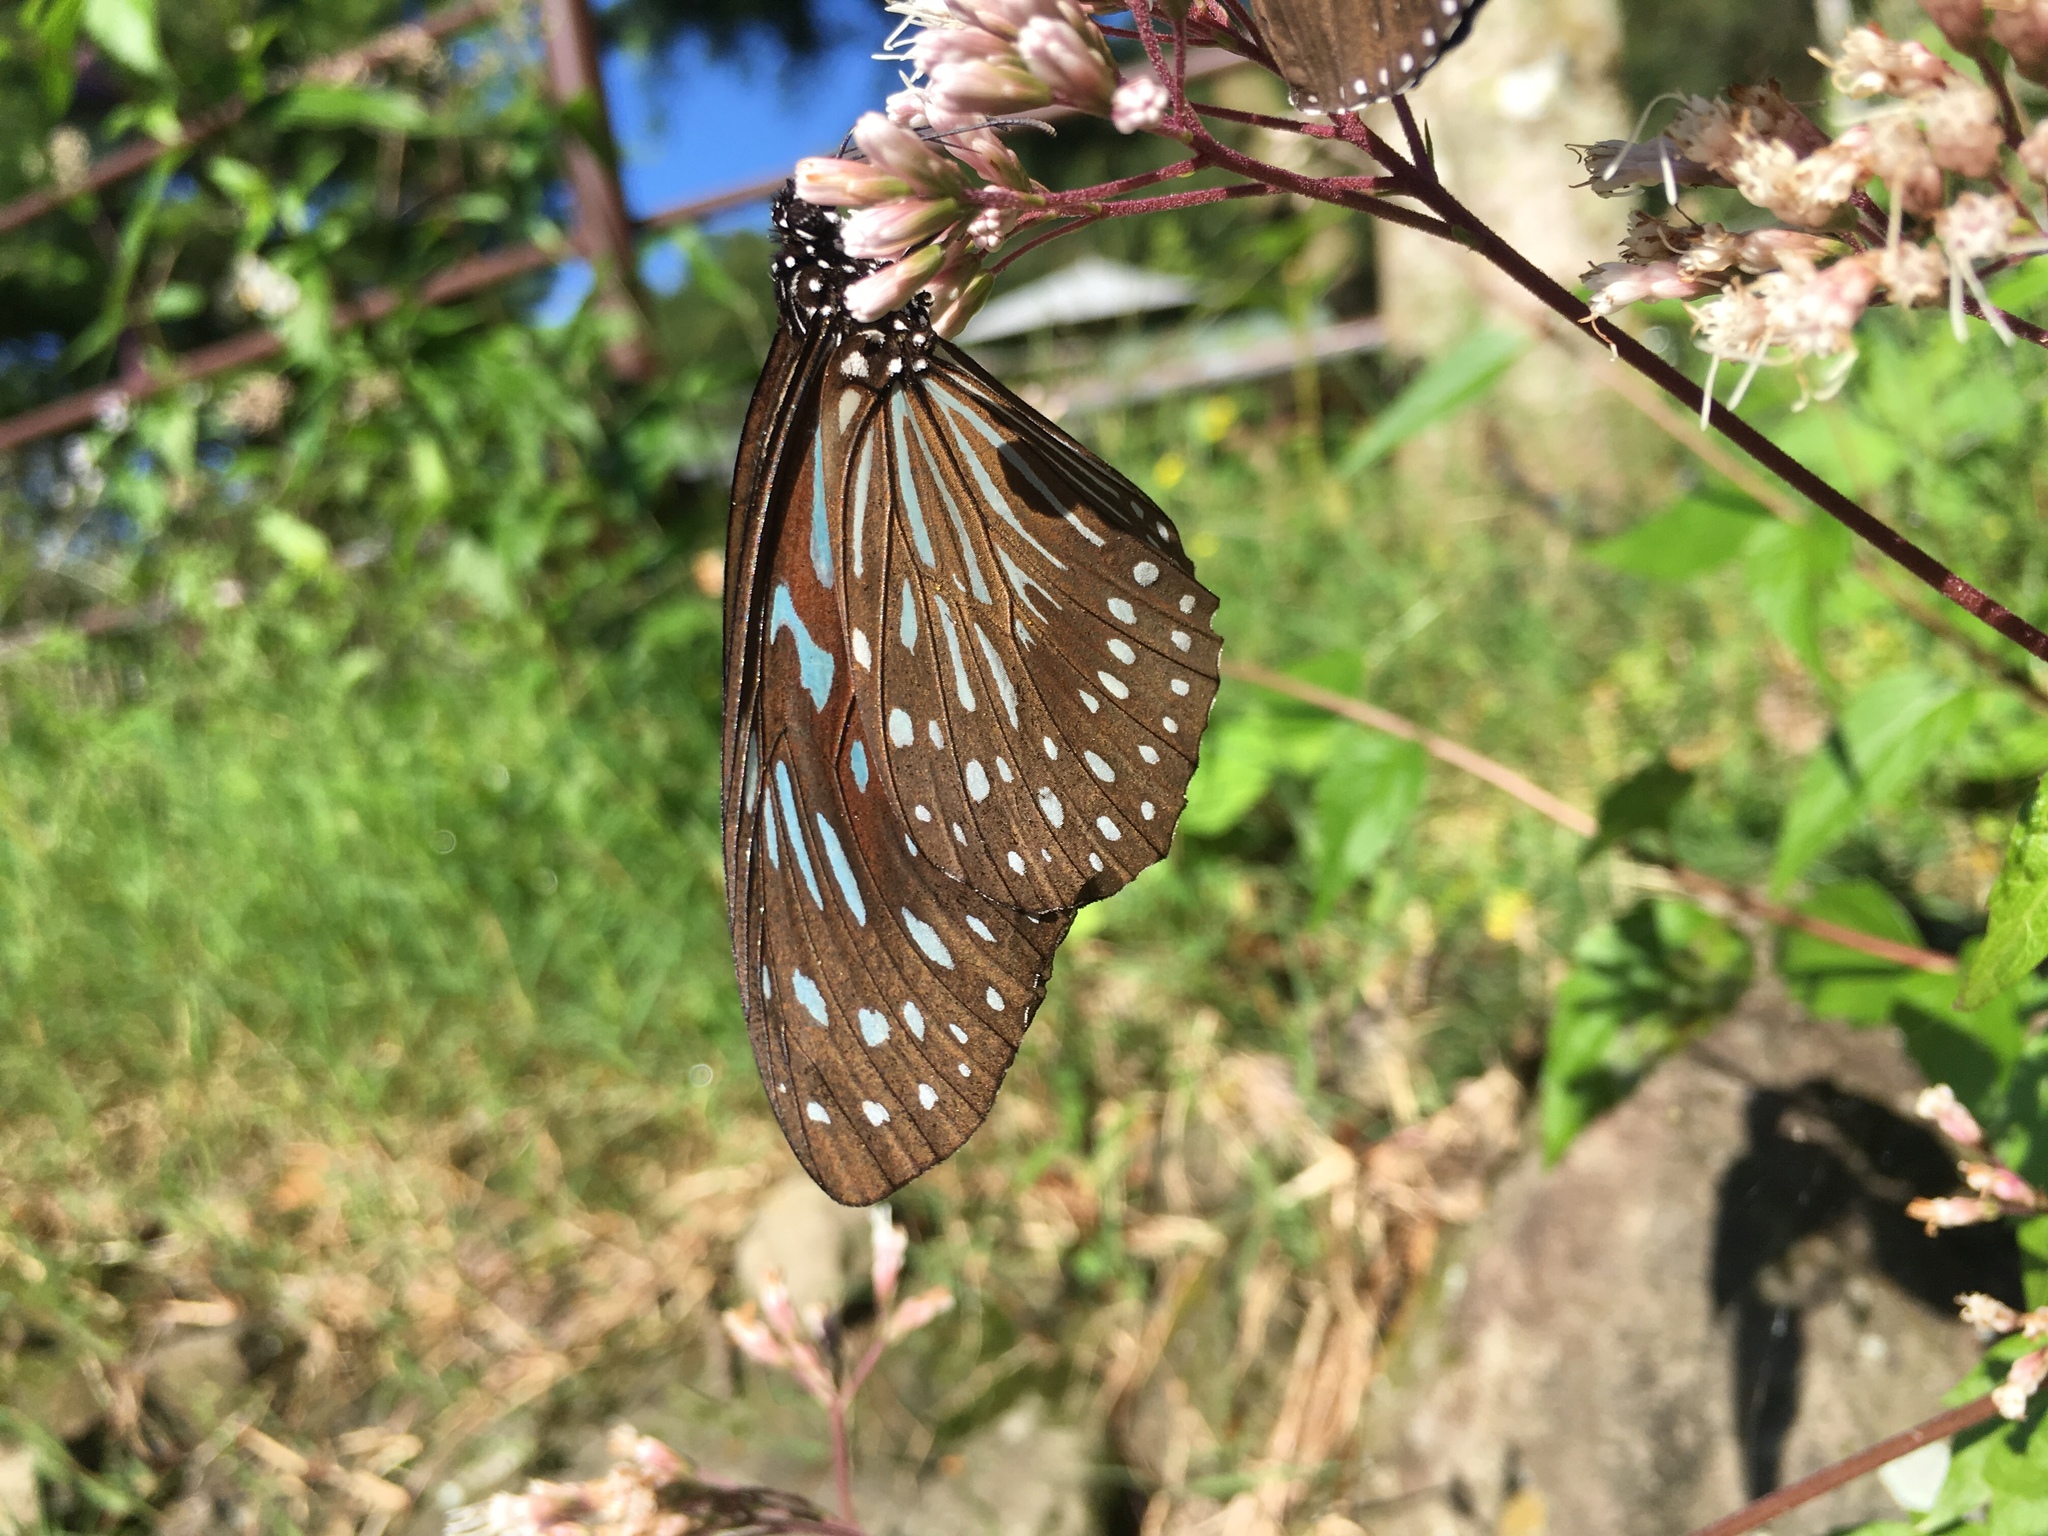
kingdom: Animalia
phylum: Arthropoda
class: Insecta
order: Lepidoptera
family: Nymphalidae
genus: Tirumala
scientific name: Tirumala septentrionis
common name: Dark blue tiger butterfly
